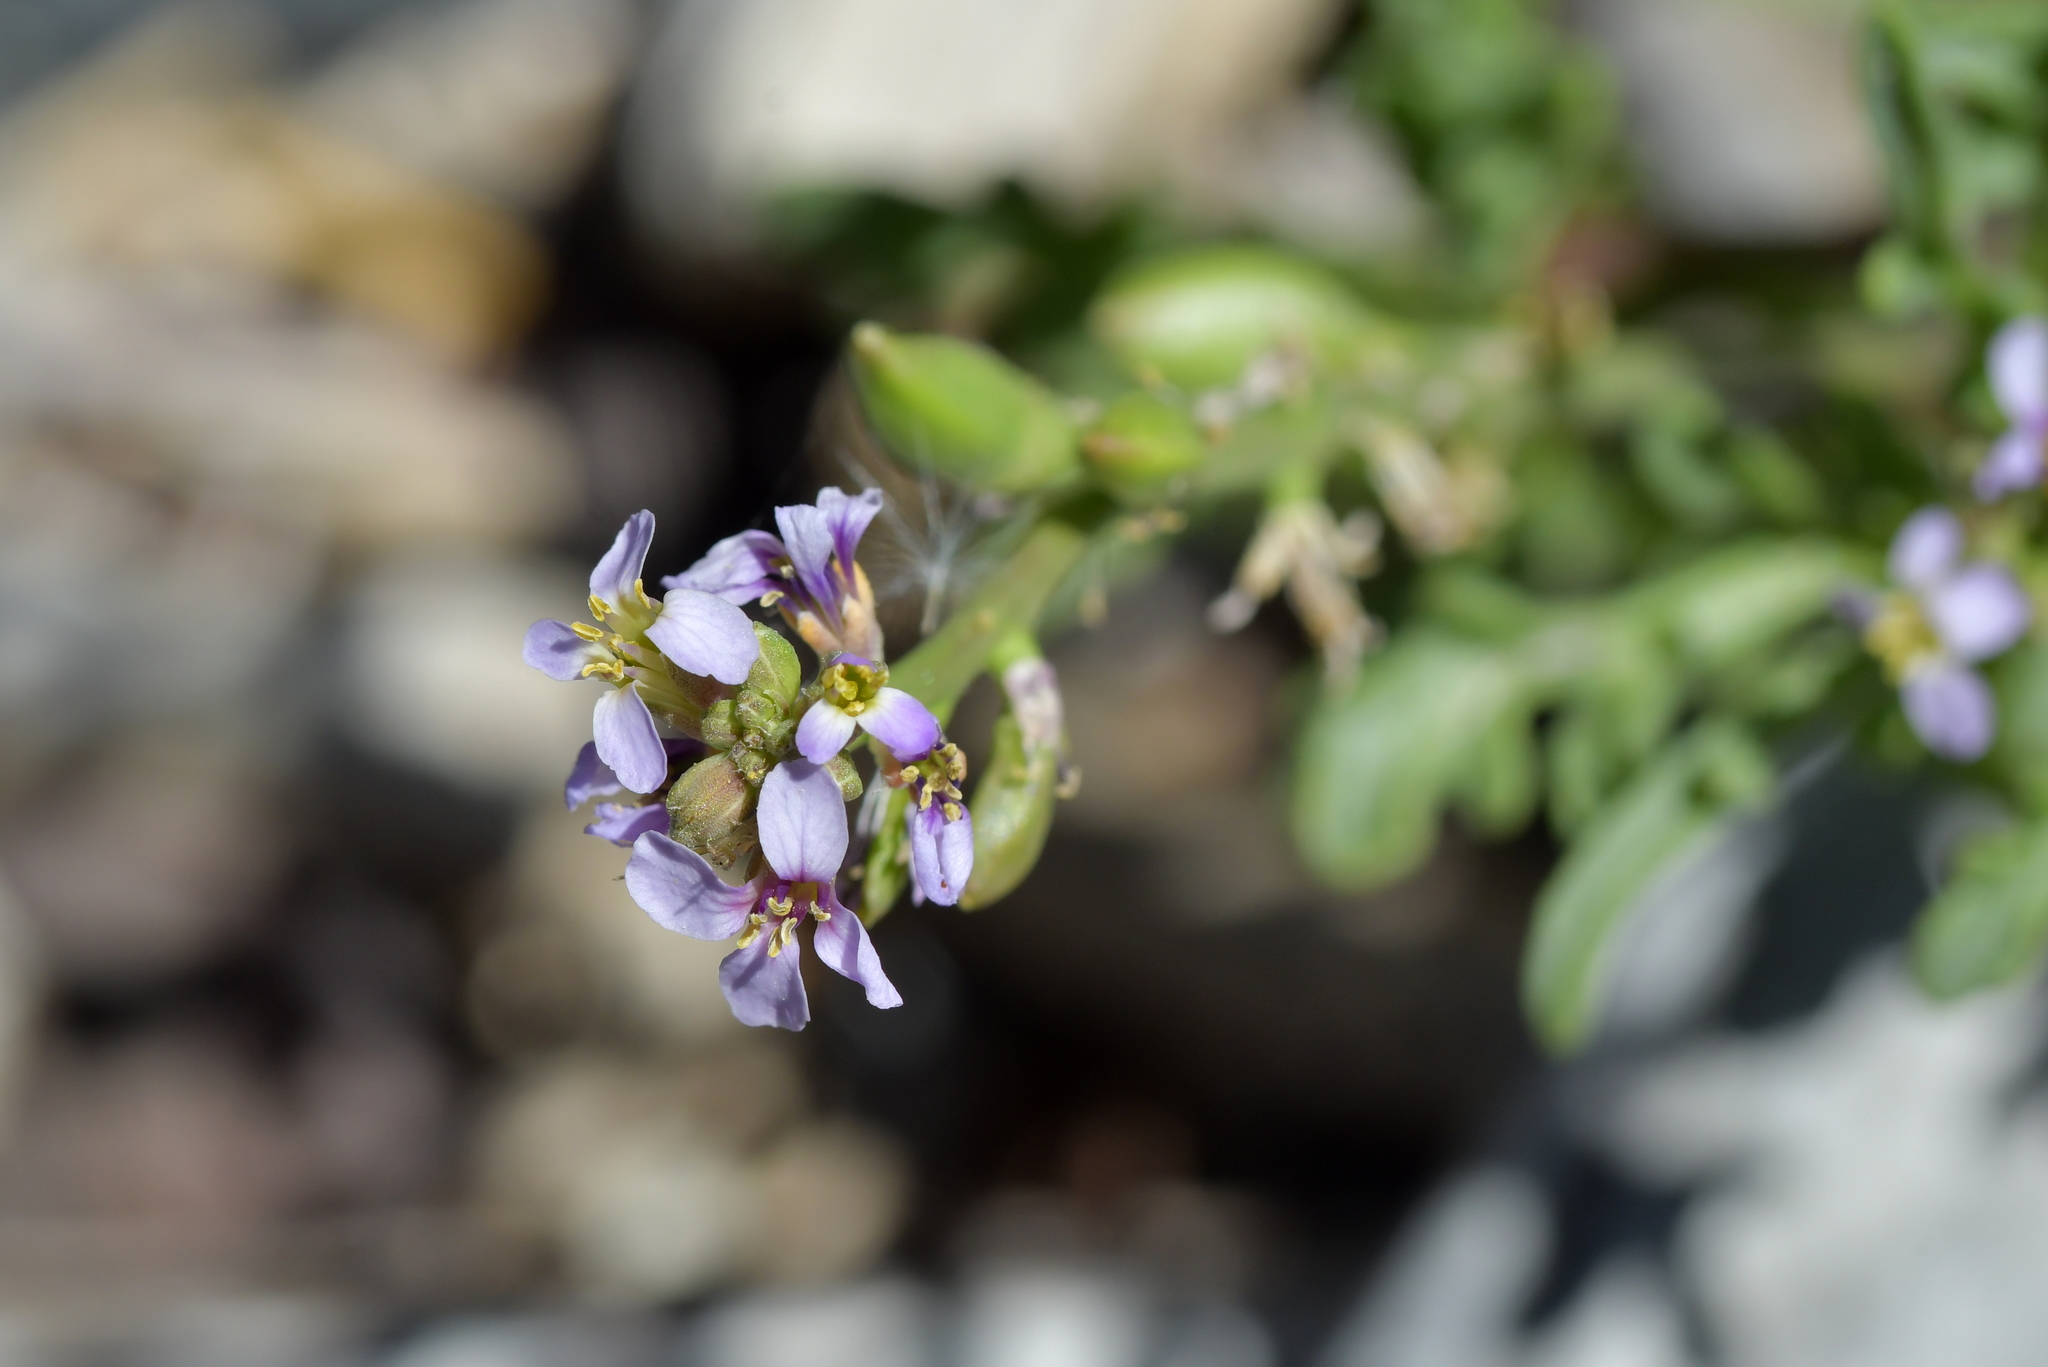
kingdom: Plantae
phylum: Tracheophyta
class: Magnoliopsida
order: Brassicales
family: Brassicaceae
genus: Cakile
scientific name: Cakile maritima
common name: Sea rocket
